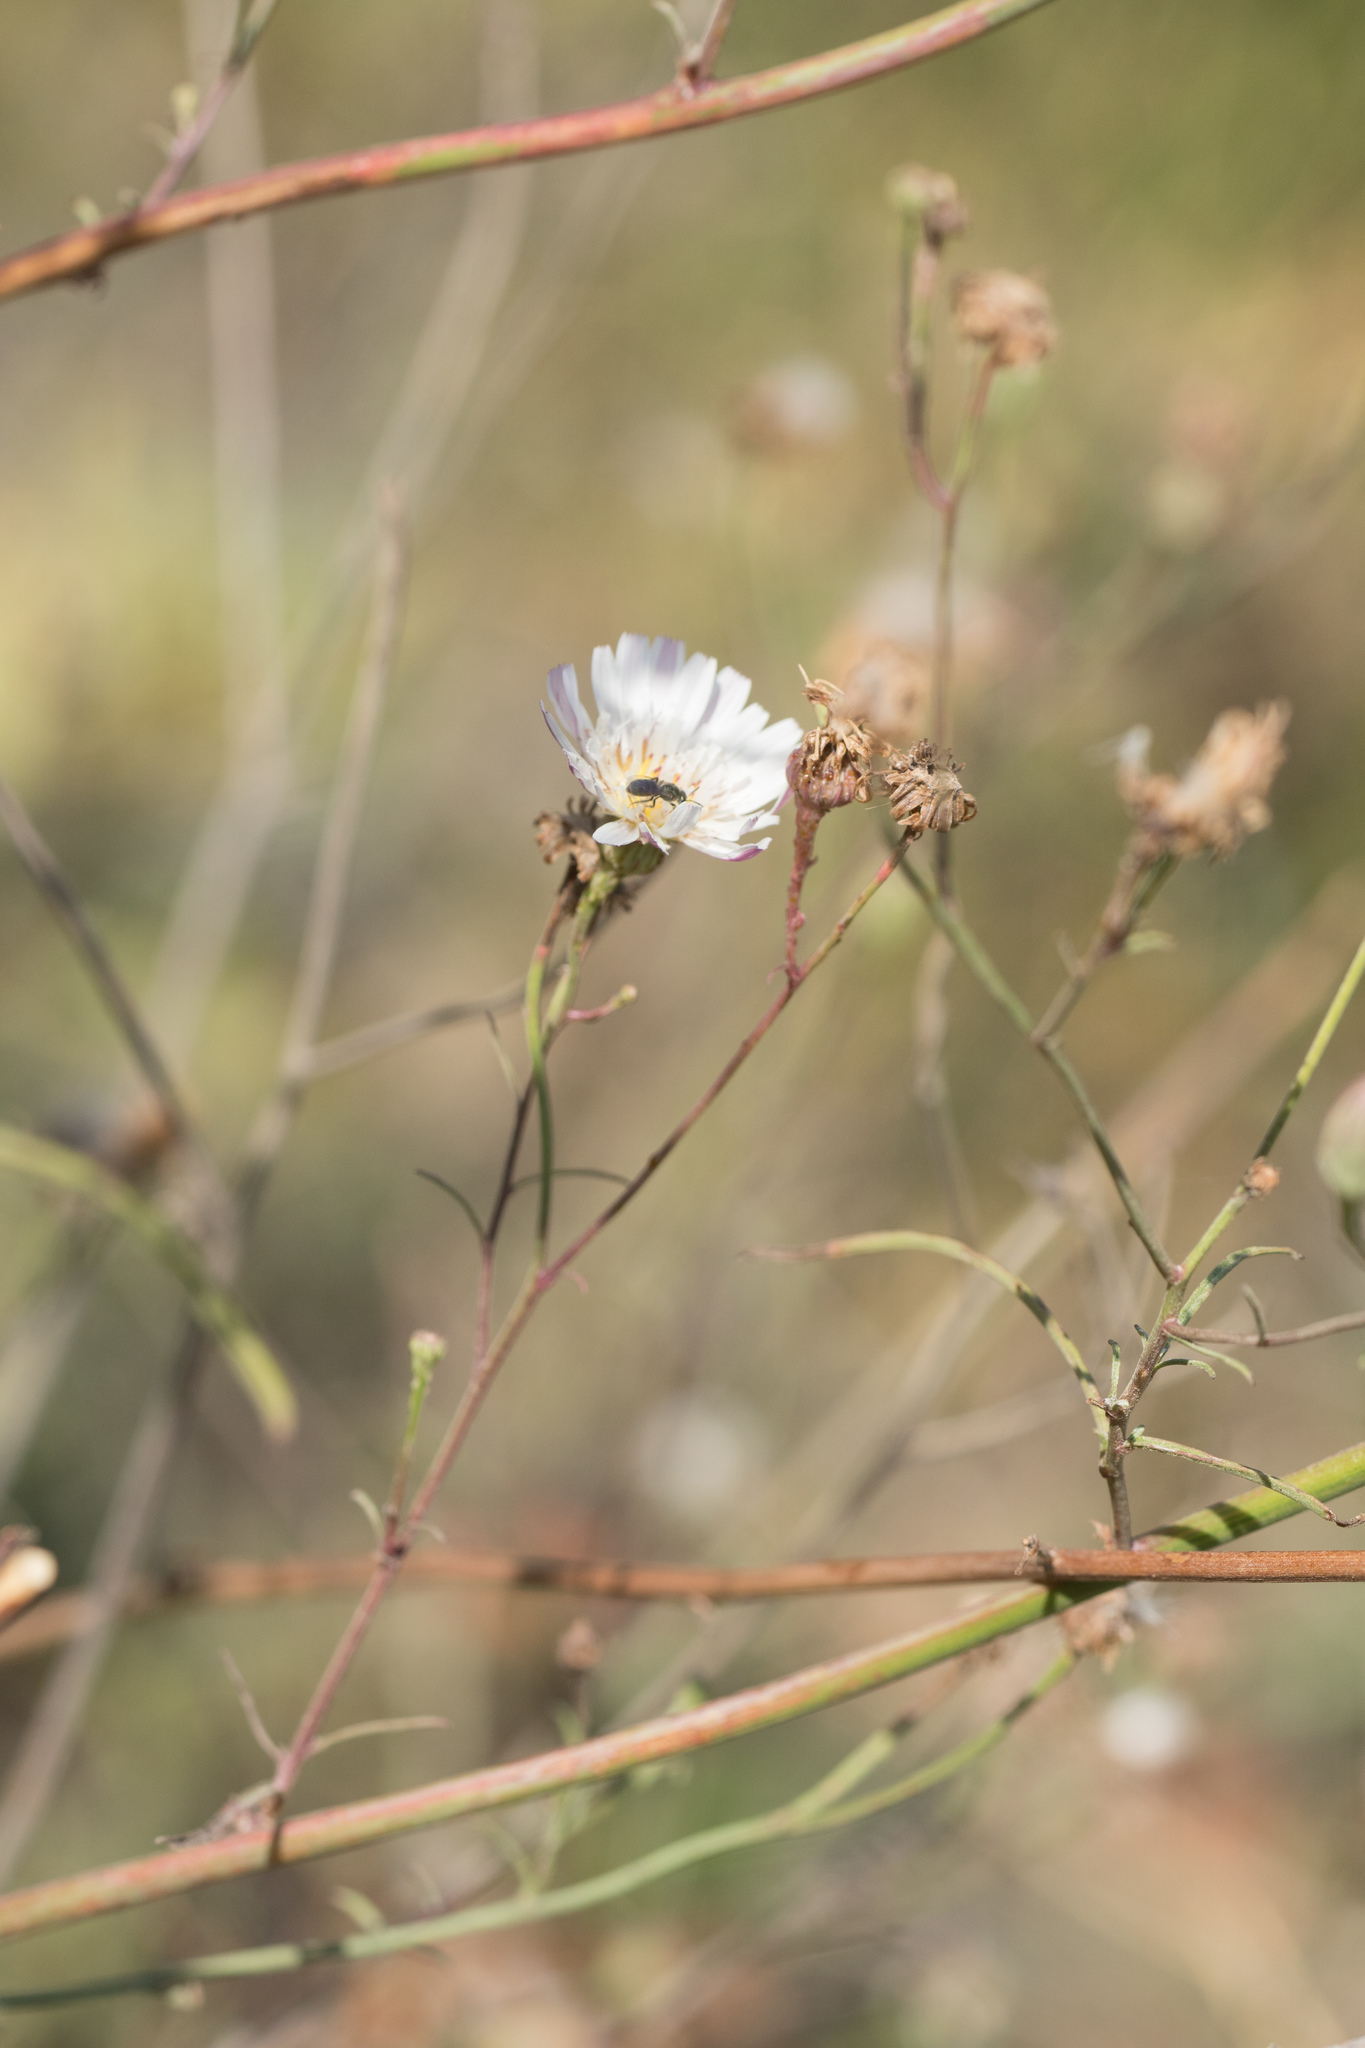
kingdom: Plantae
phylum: Tracheophyta
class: Magnoliopsida
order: Asterales
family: Asteraceae
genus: Malacothrix
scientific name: Malacothrix saxatilis
